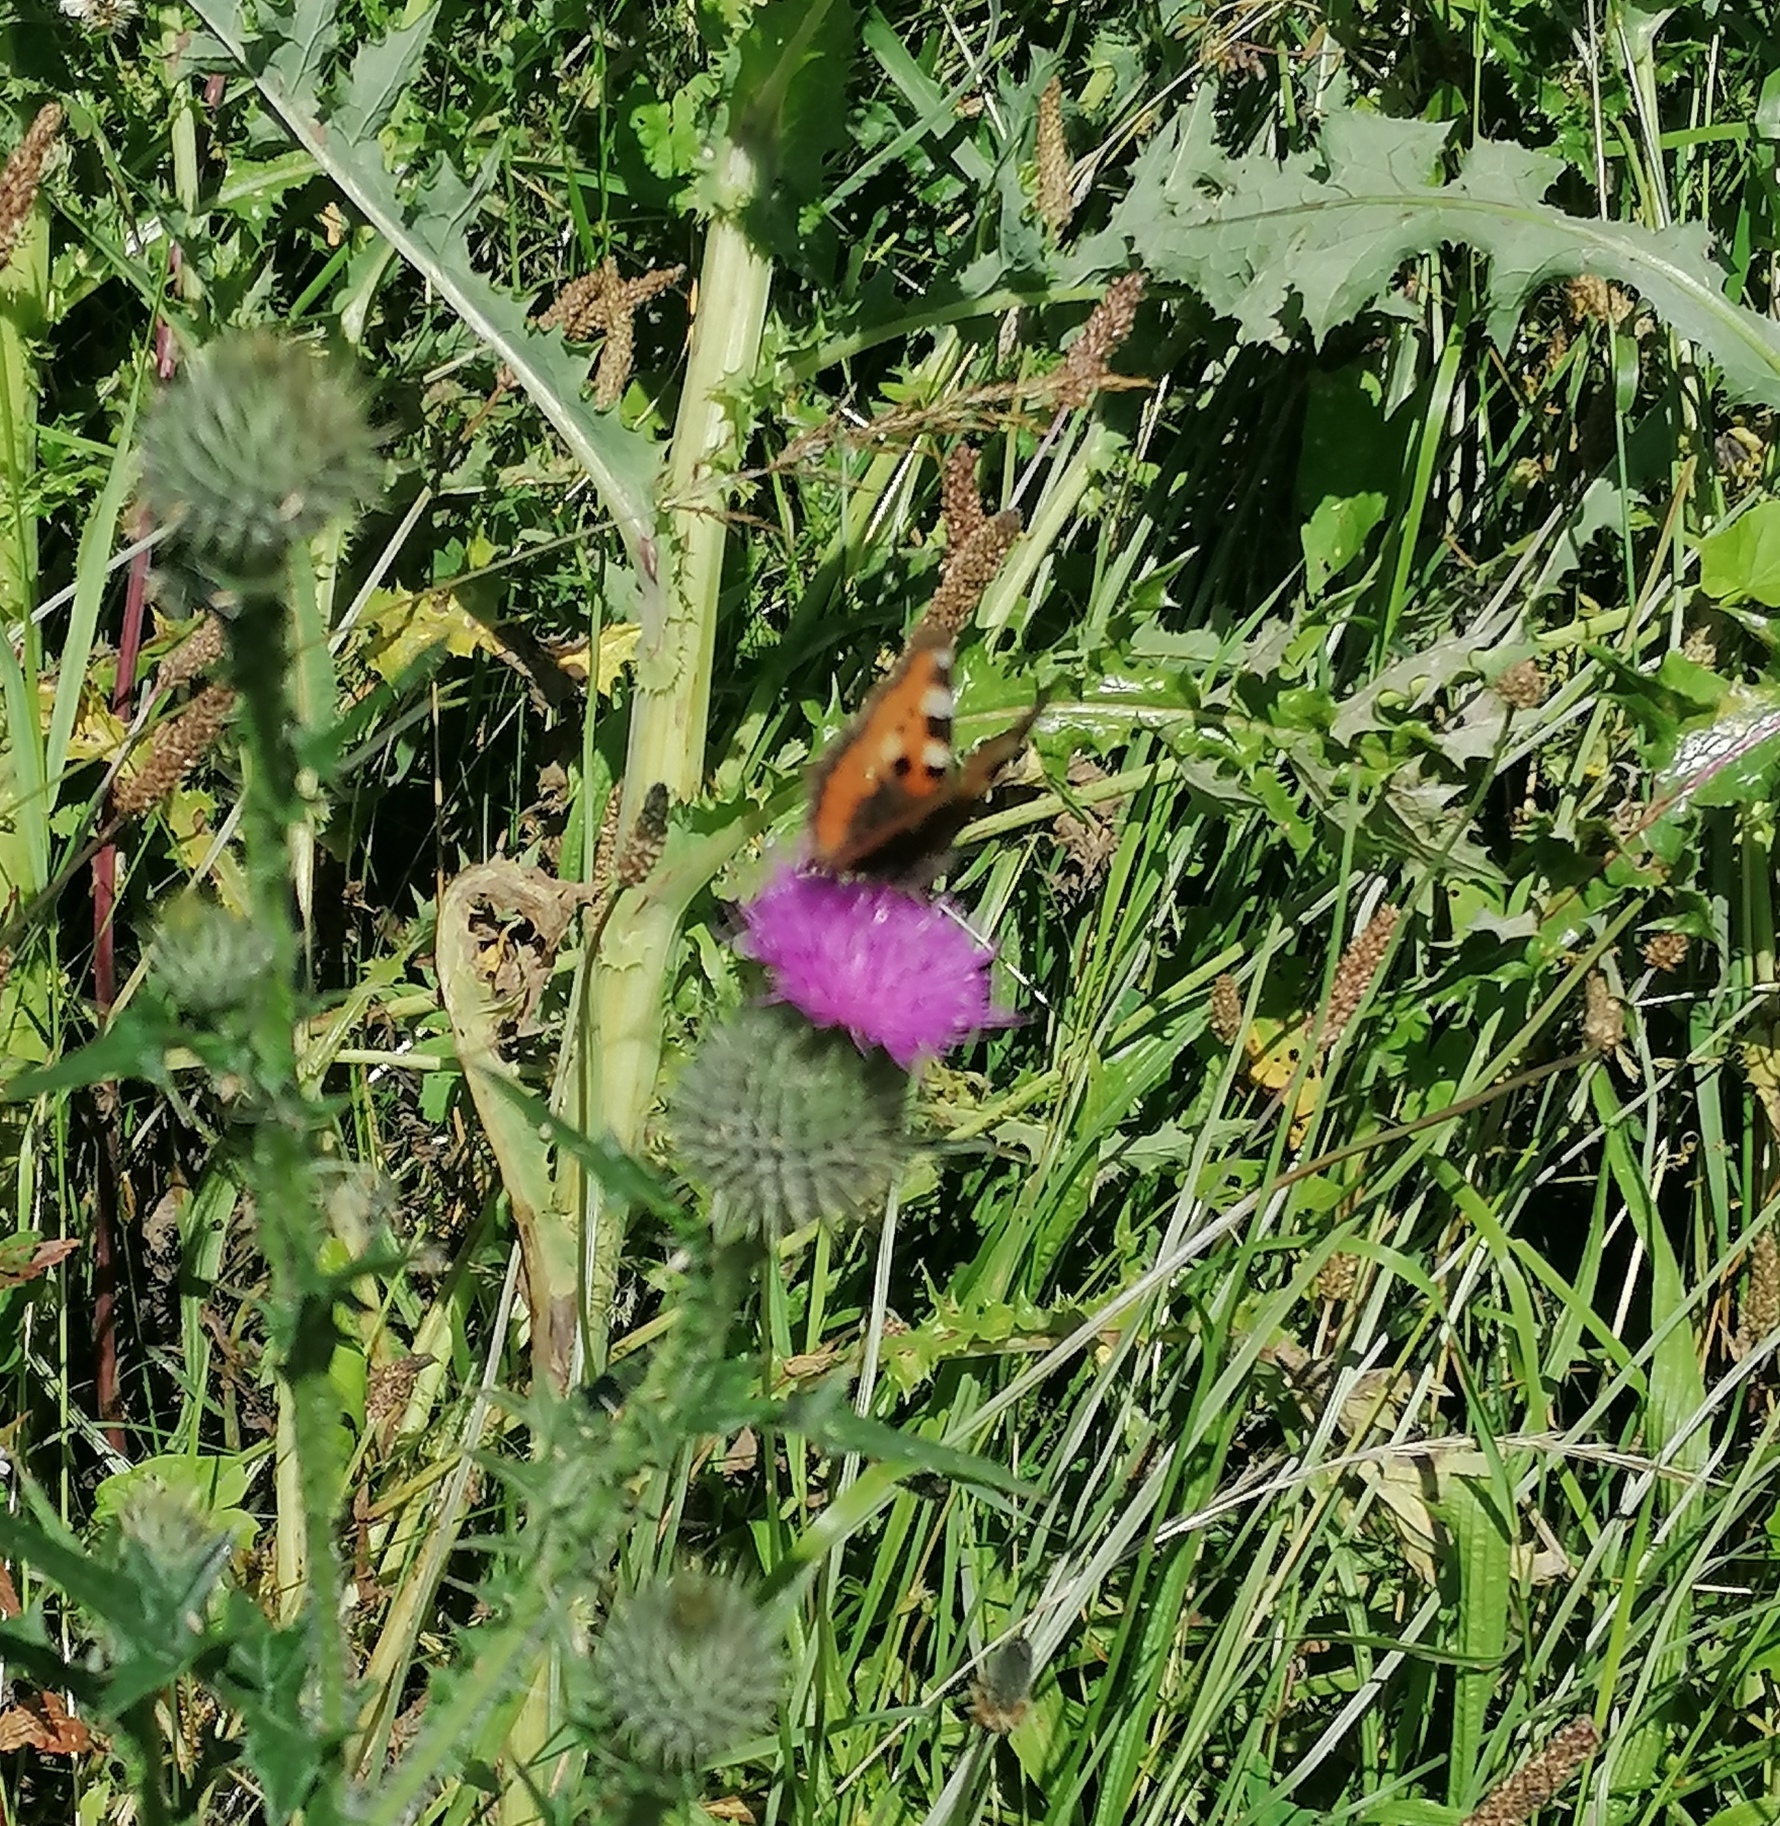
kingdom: Animalia
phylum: Arthropoda
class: Insecta
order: Lepidoptera
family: Nymphalidae
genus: Aglais
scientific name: Aglais urticae
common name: Small tortoiseshell
